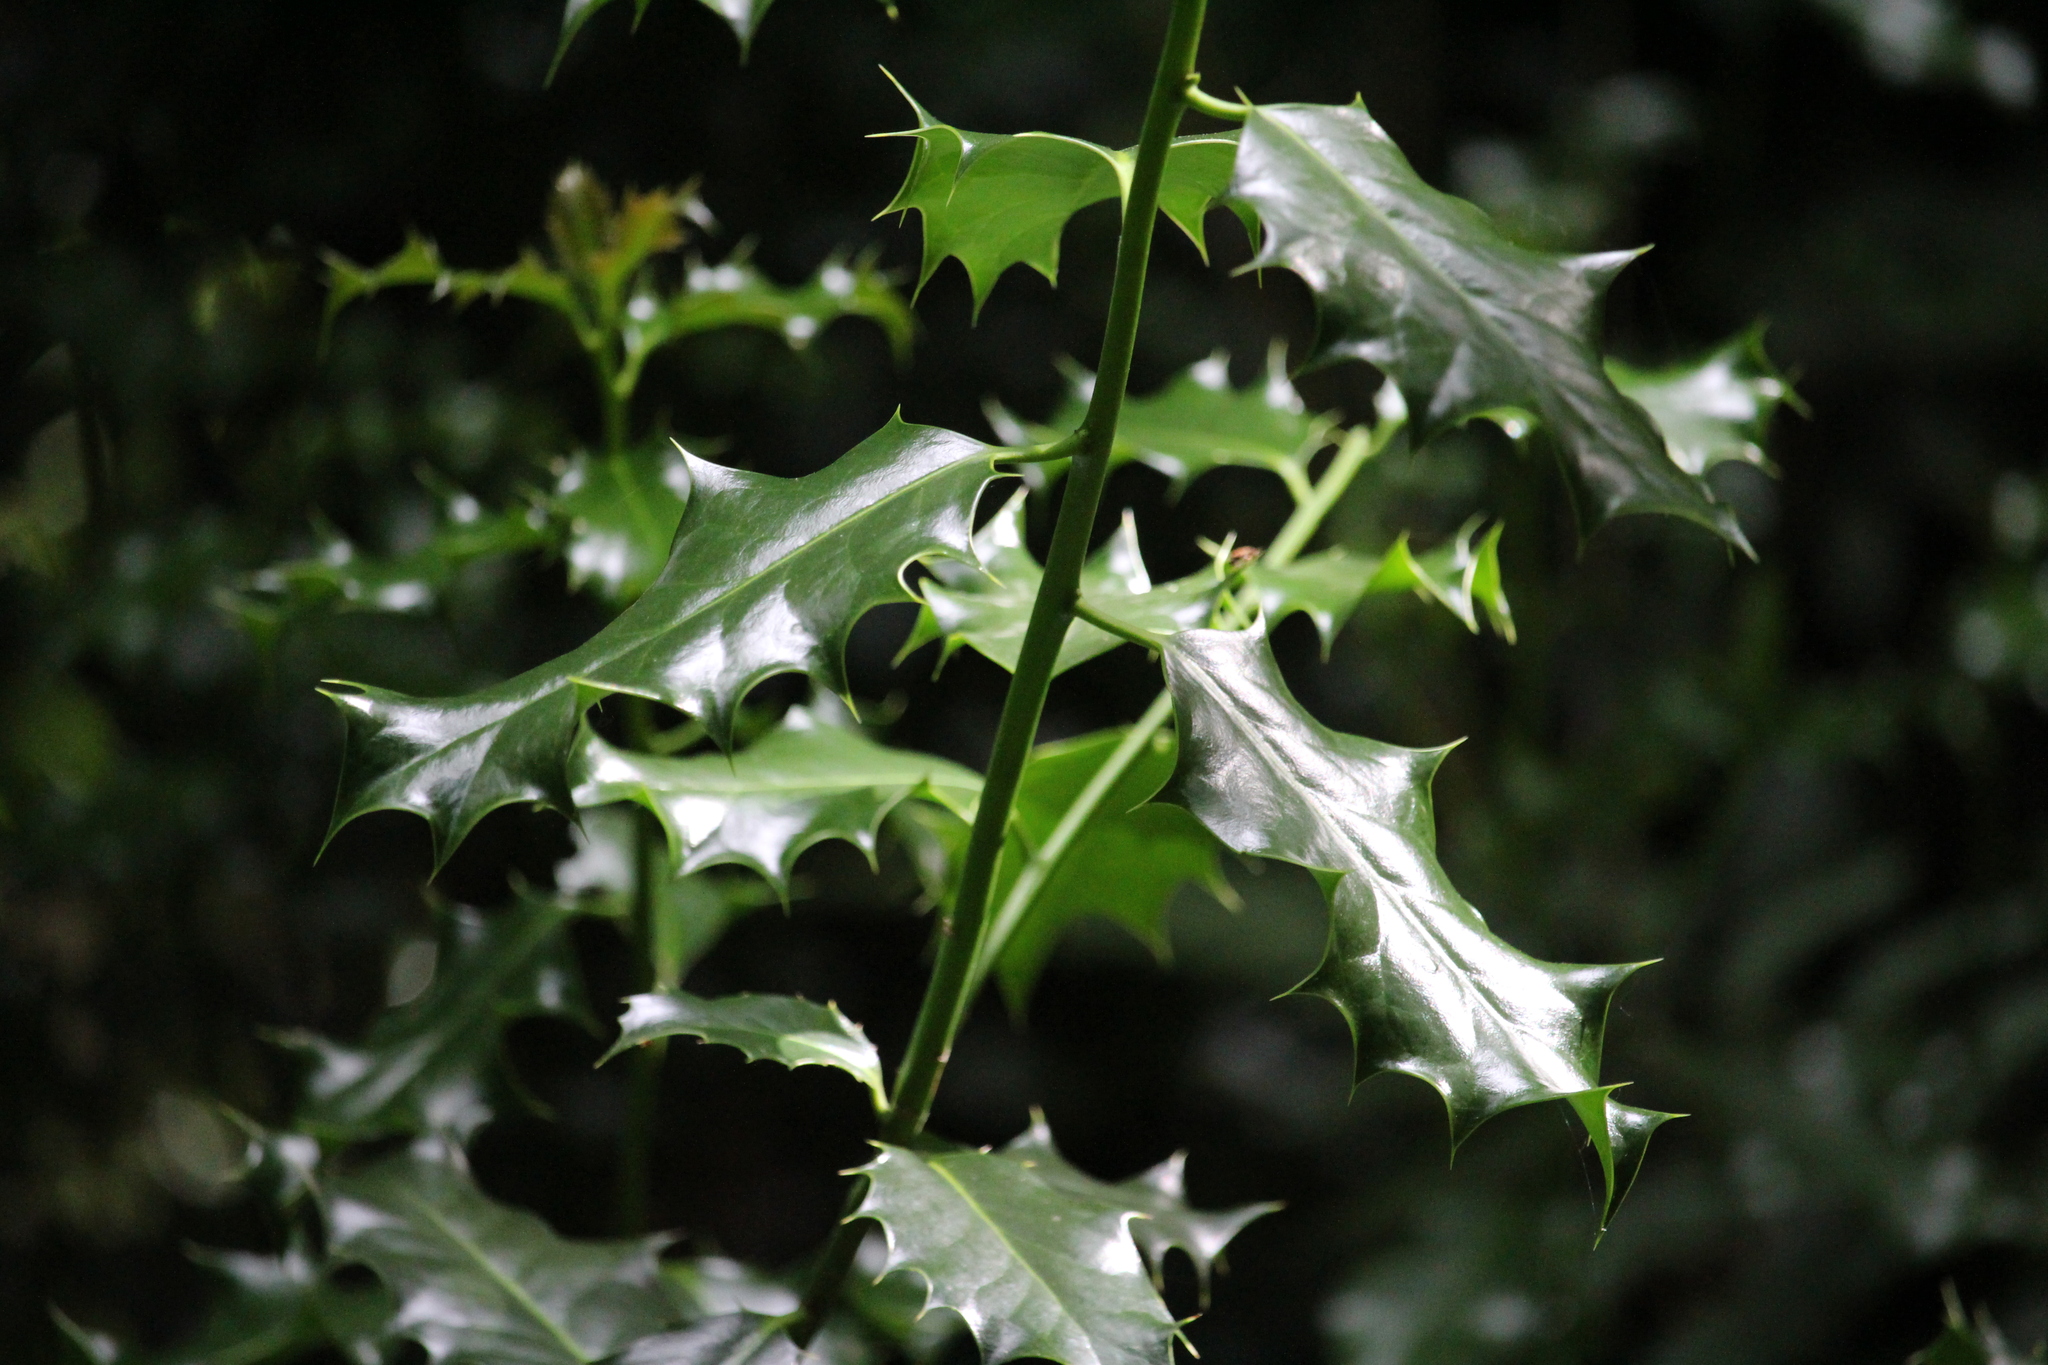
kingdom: Plantae
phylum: Tracheophyta
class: Magnoliopsida
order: Aquifoliales
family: Aquifoliaceae
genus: Ilex
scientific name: Ilex aquifolium
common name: English holly
